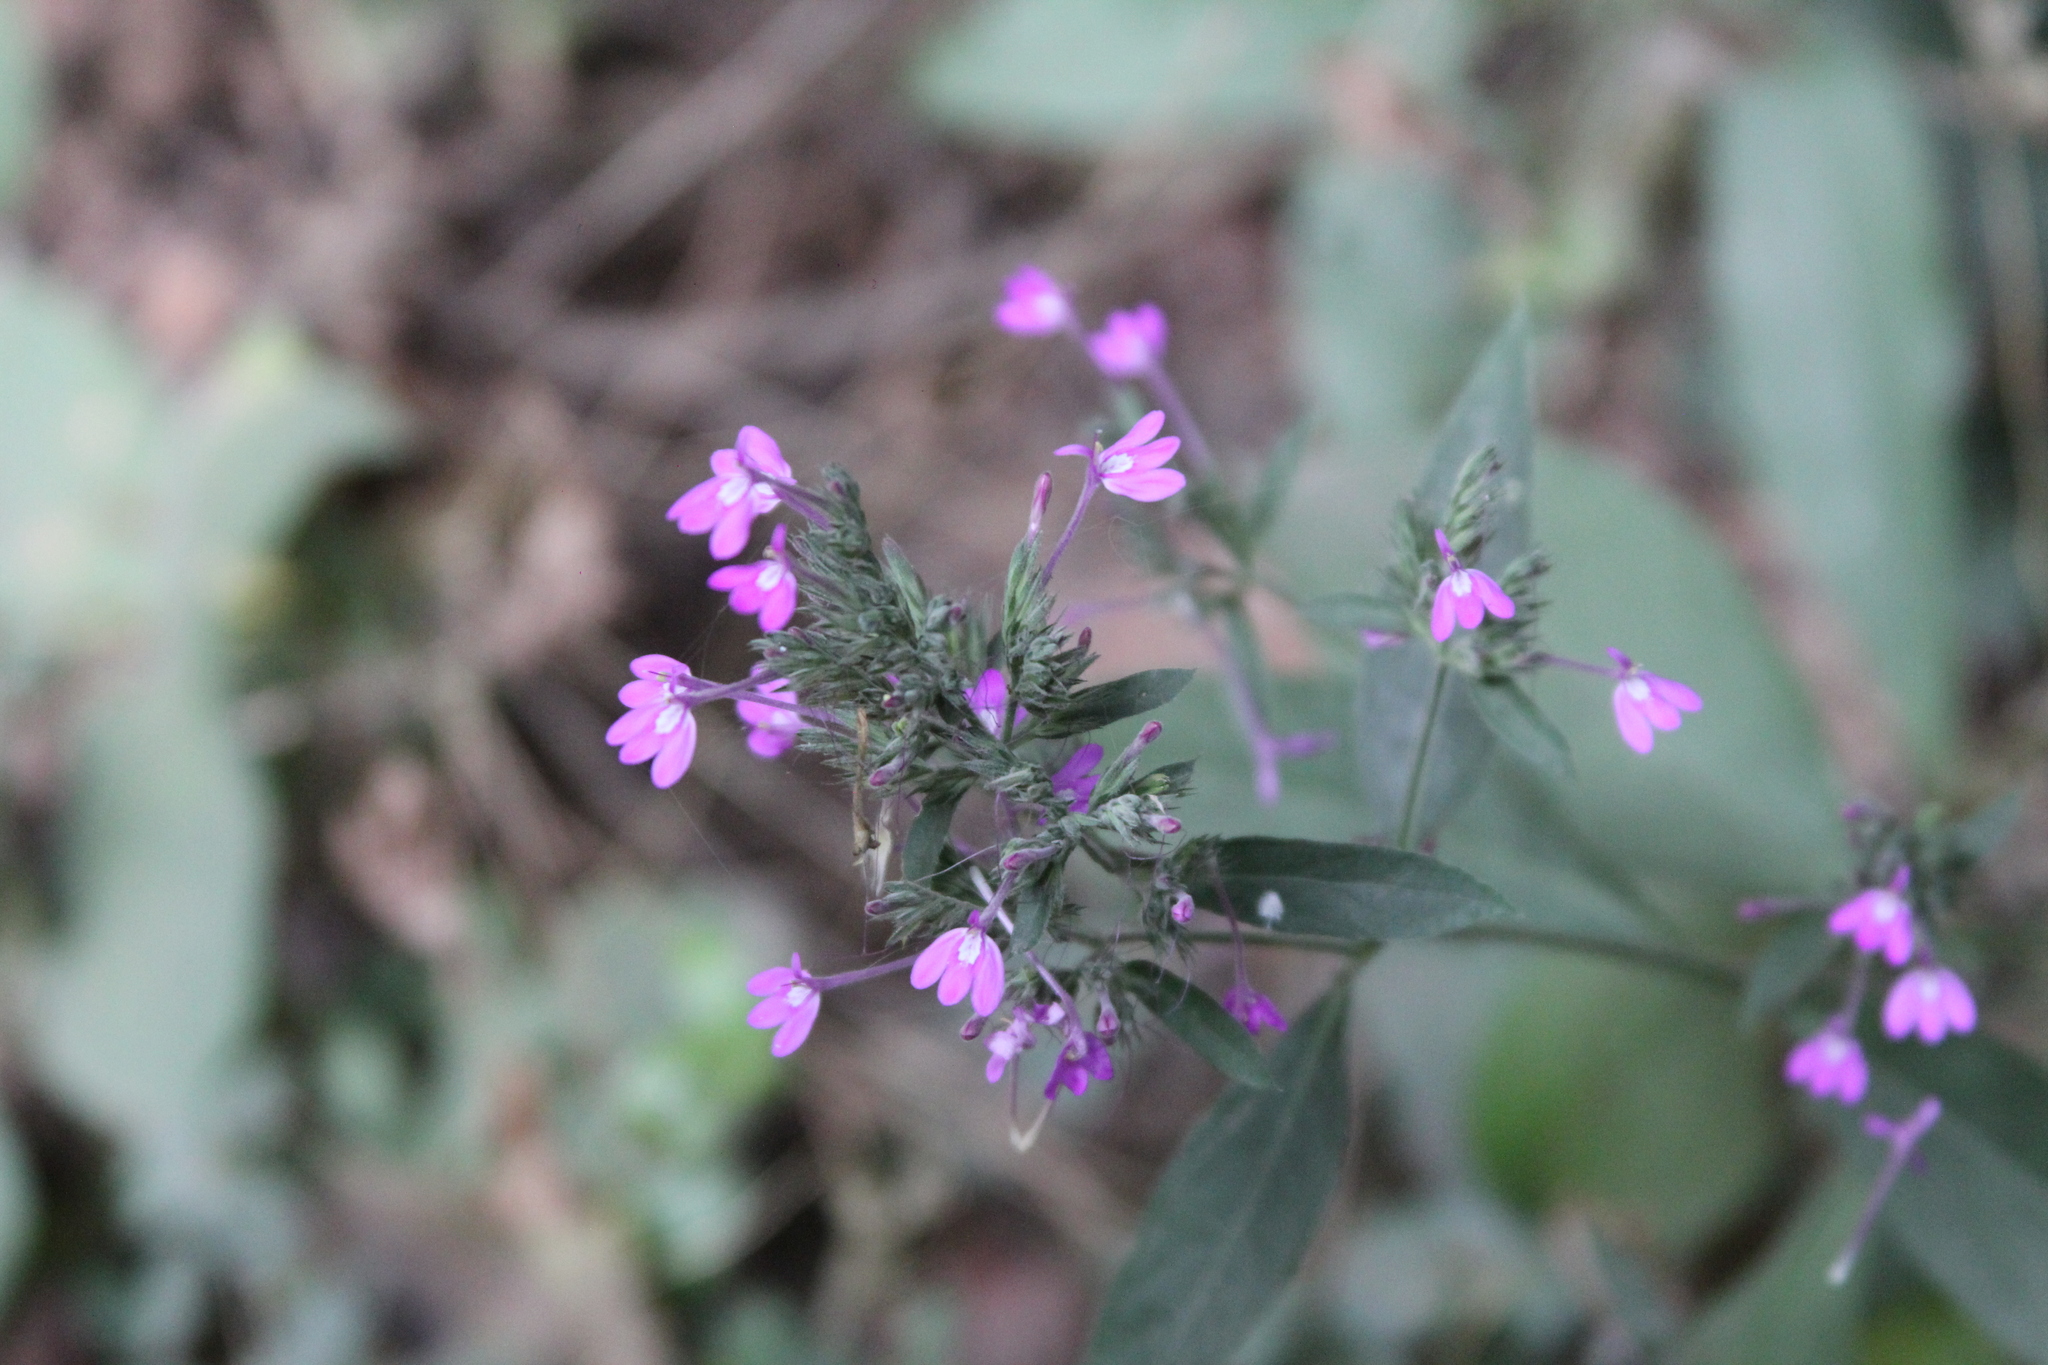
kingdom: Plantae
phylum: Tracheophyta
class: Magnoliopsida
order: Lamiales
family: Acanthaceae
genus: Justicia
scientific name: Justicia goudotii
